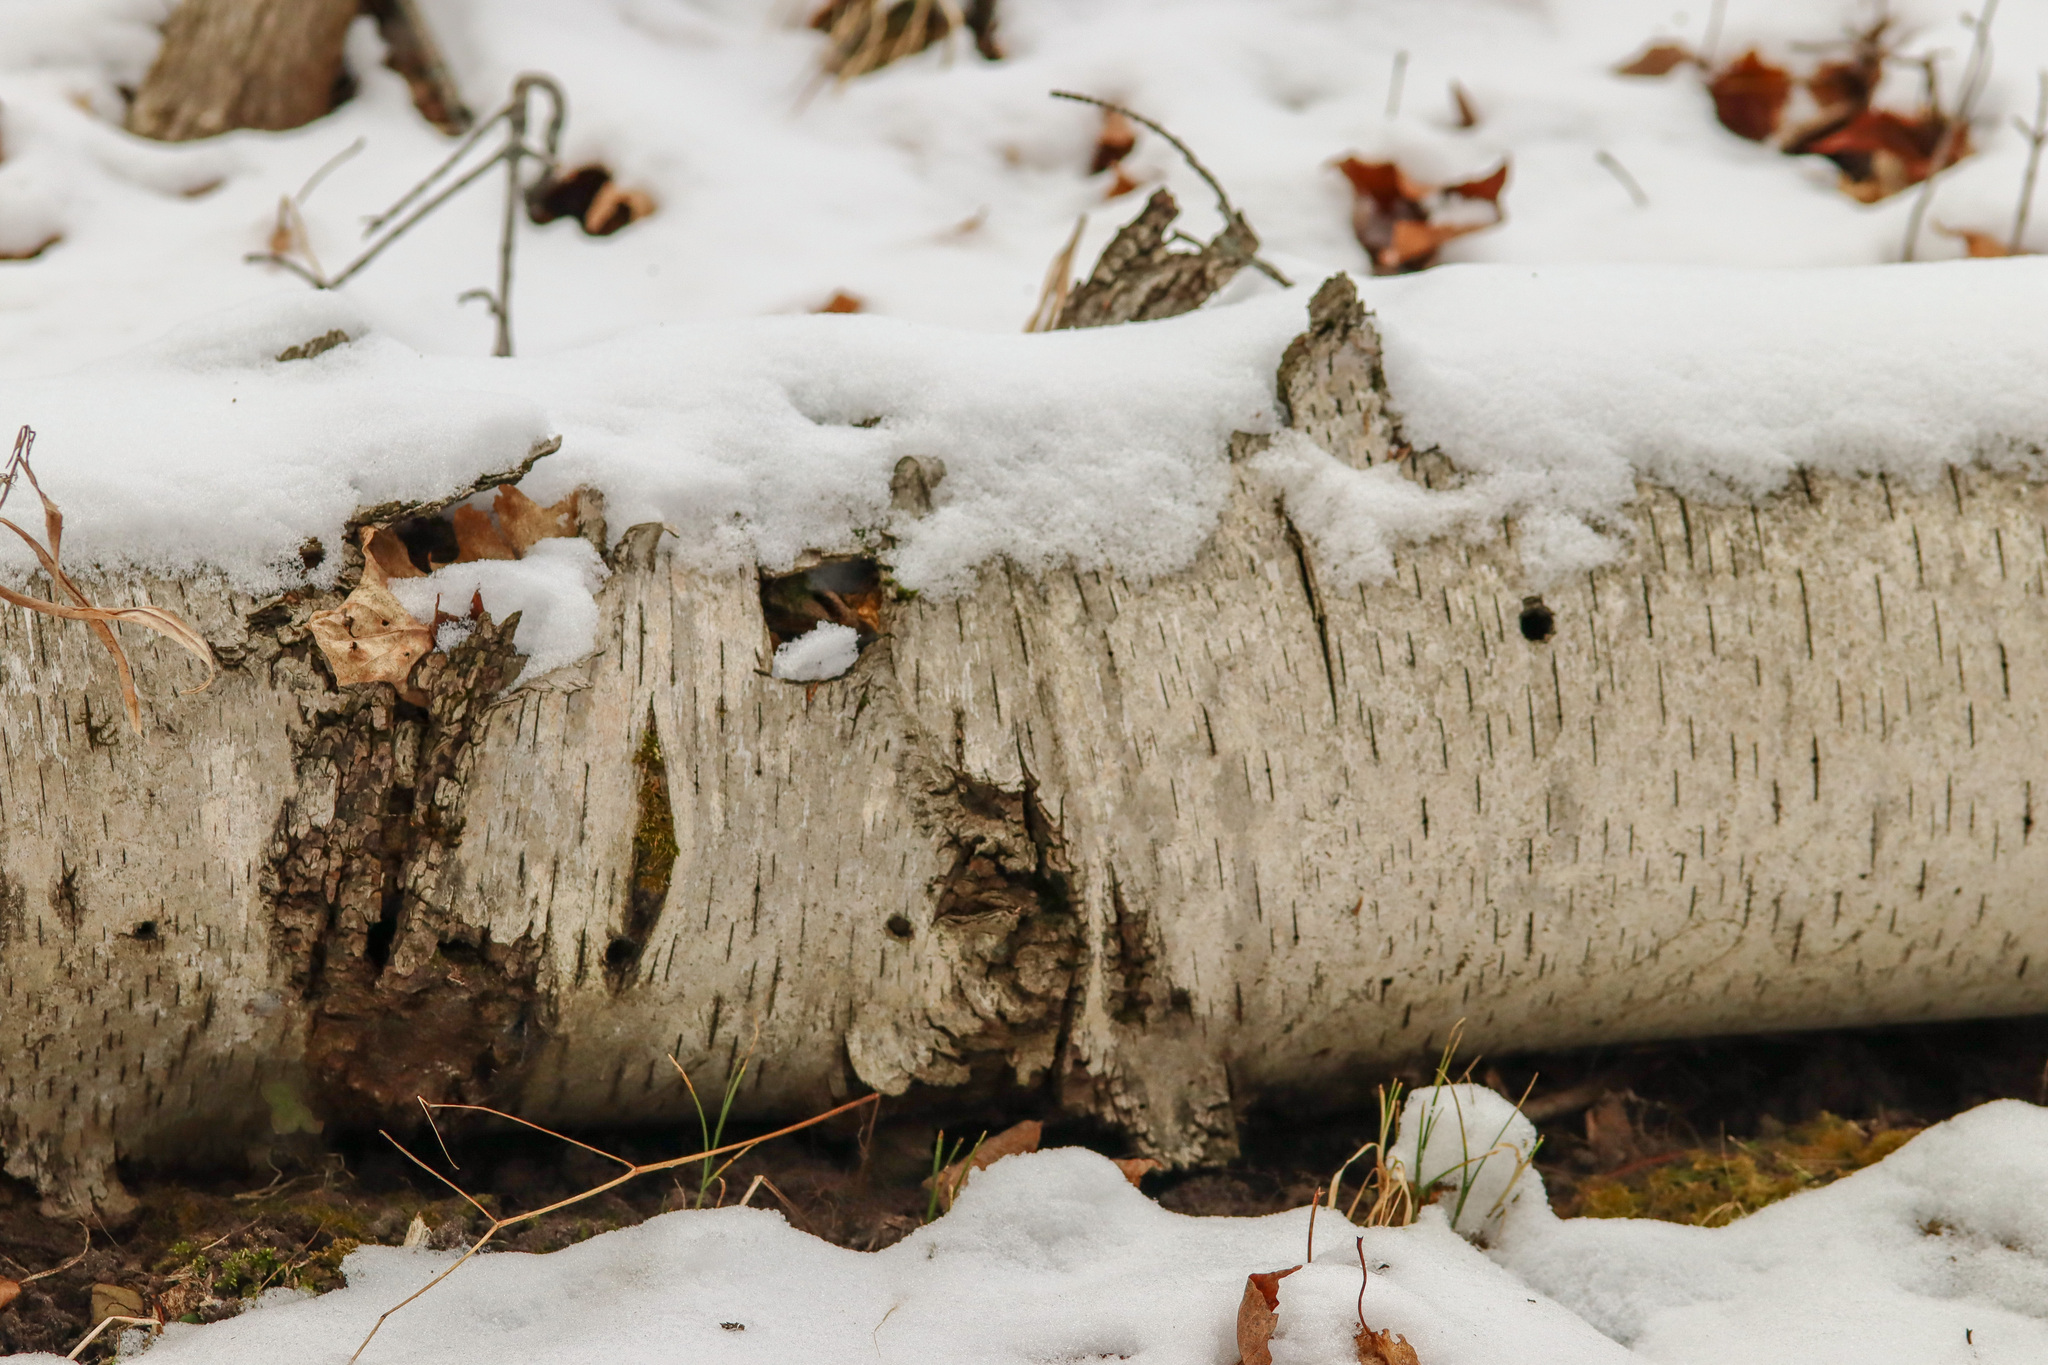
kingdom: Plantae
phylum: Tracheophyta
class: Magnoliopsida
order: Fagales
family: Betulaceae
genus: Betula
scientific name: Betula papyrifera
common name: Paper birch
